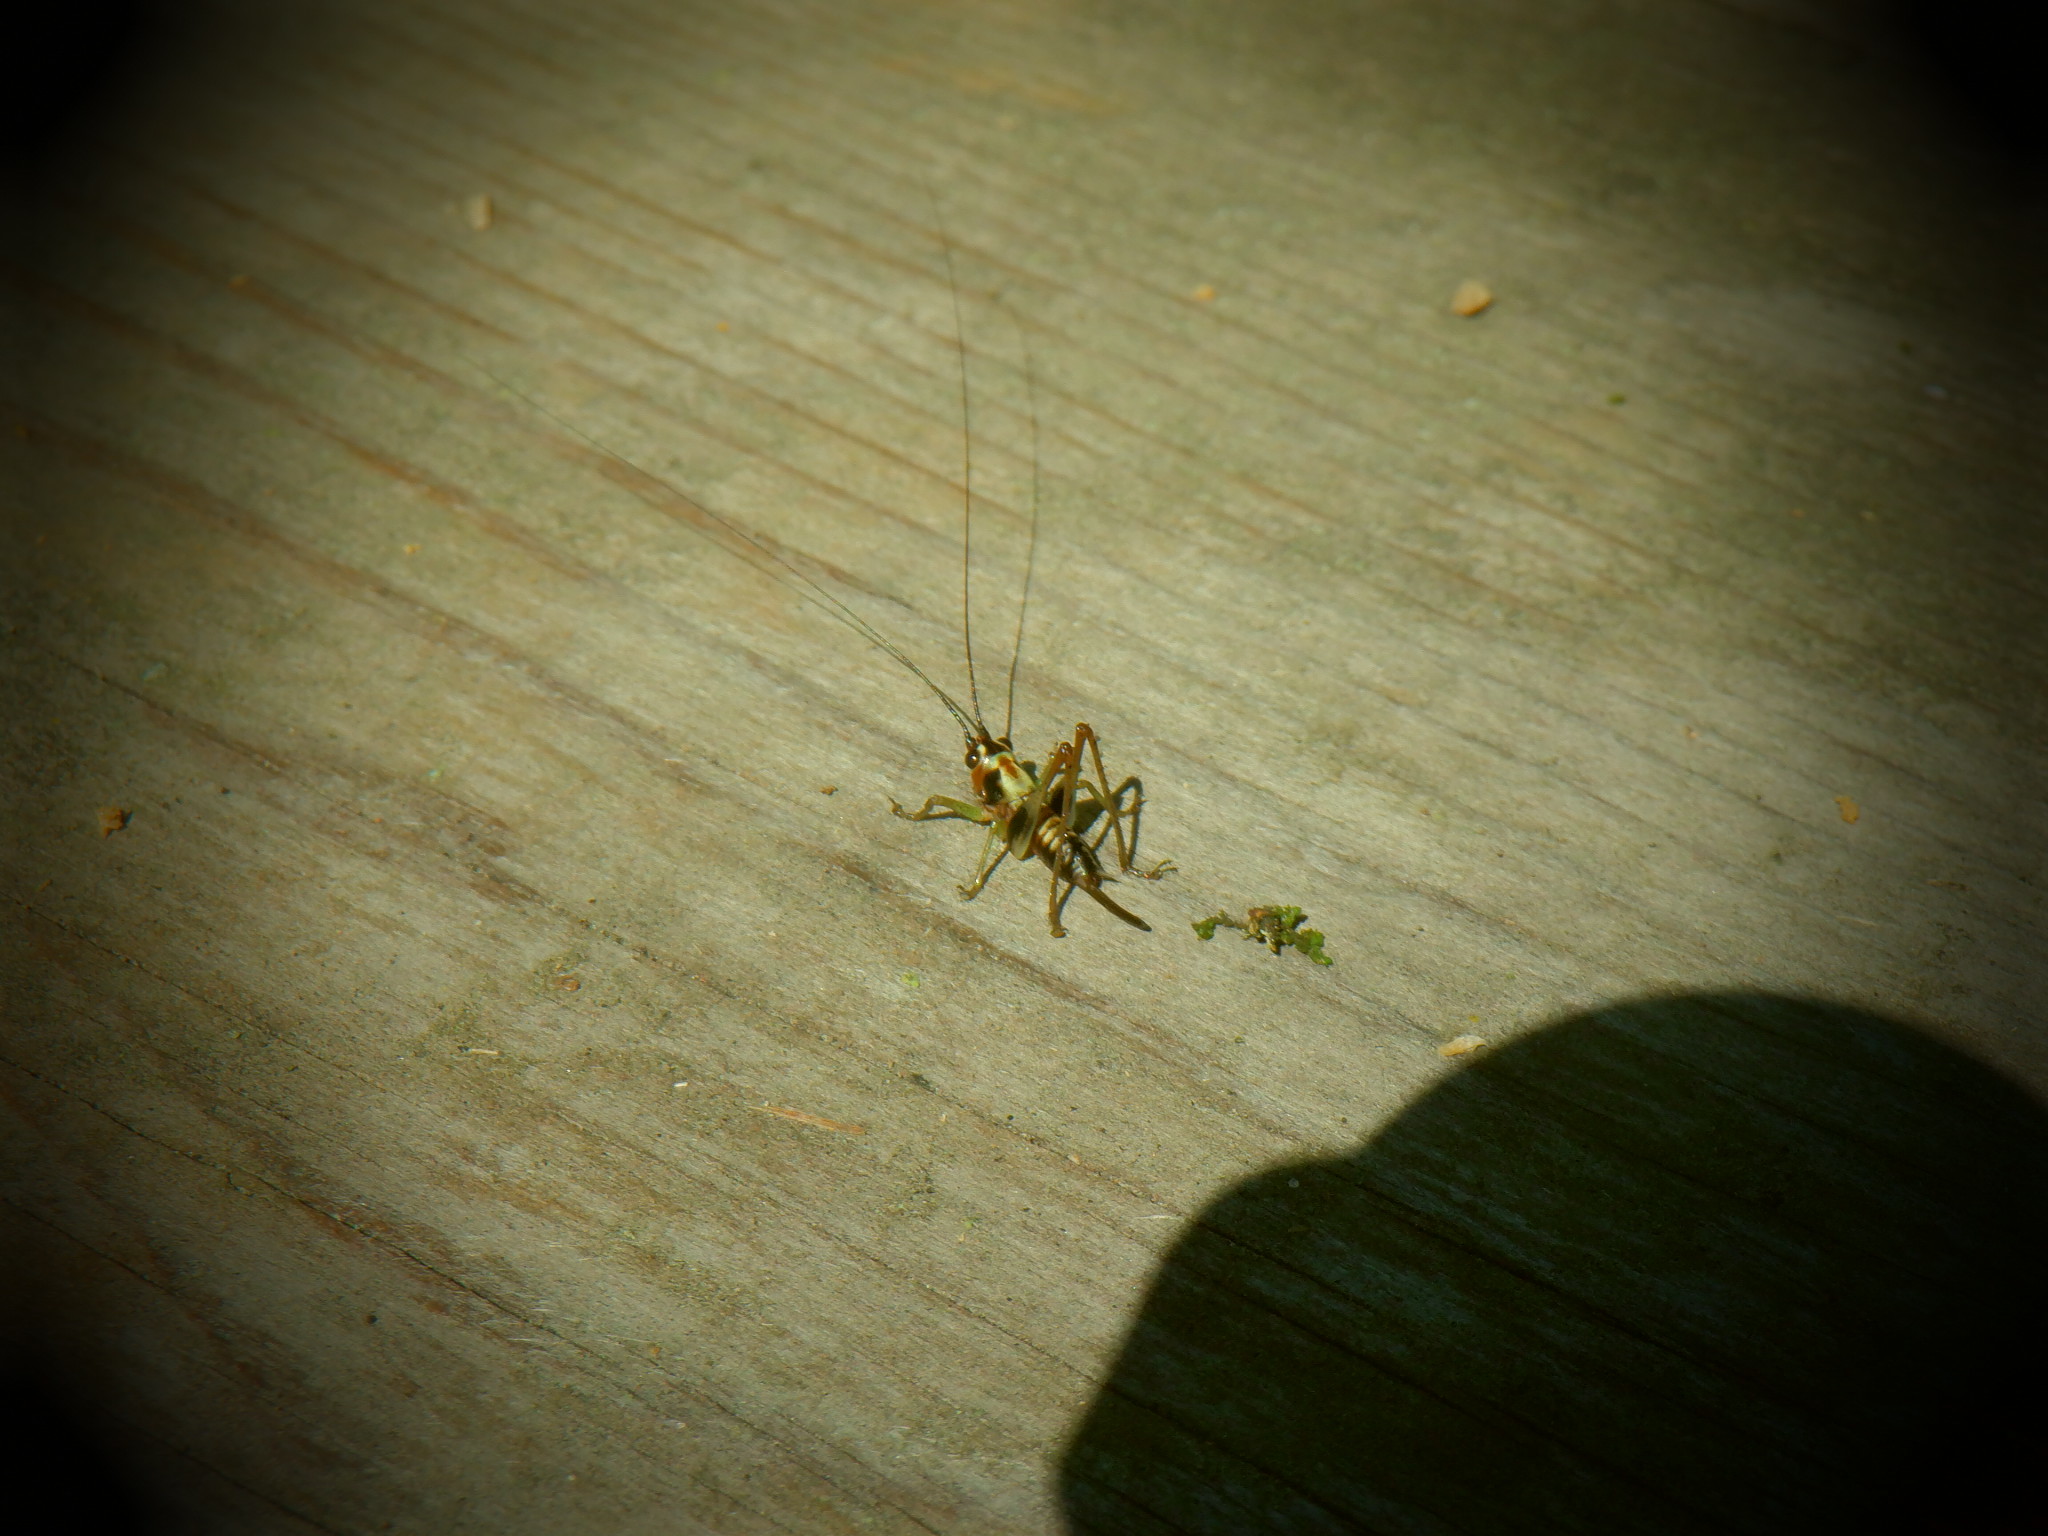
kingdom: Animalia
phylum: Arthropoda
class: Insecta
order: Orthoptera
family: Tettigoniidae
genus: Conocephalus
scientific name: Conocephalus nigropleurum
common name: Black-sided meadow katydid
